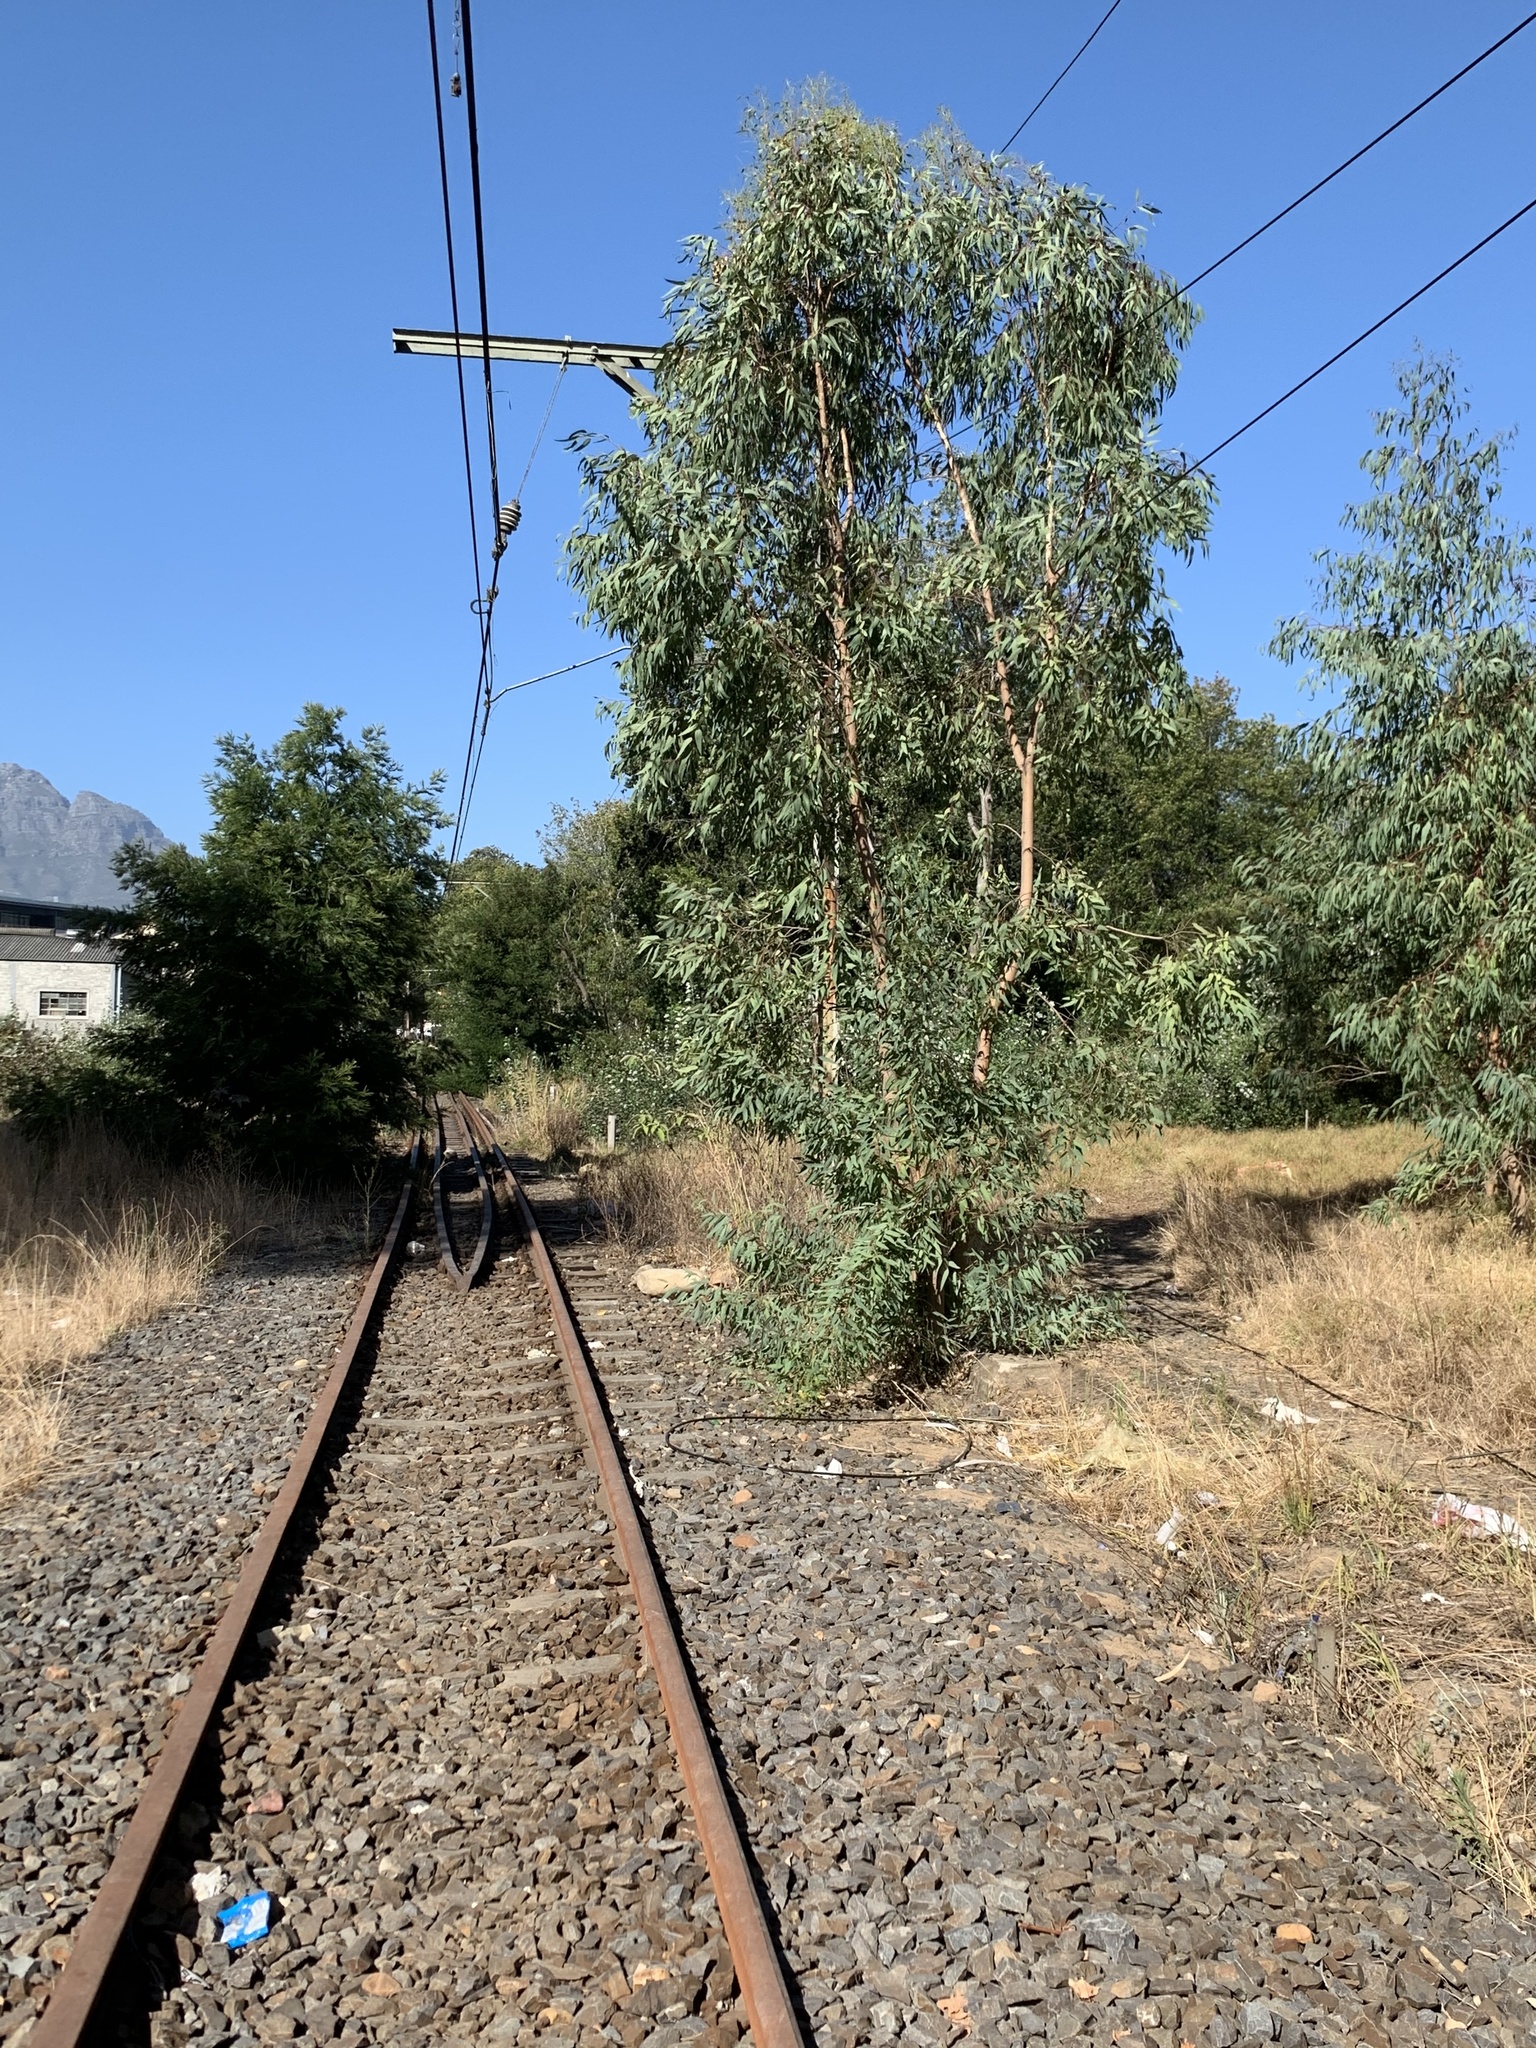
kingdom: Plantae
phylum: Tracheophyta
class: Magnoliopsida
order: Myrtales
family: Myrtaceae
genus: Eucalyptus
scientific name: Eucalyptus camaldulensis
